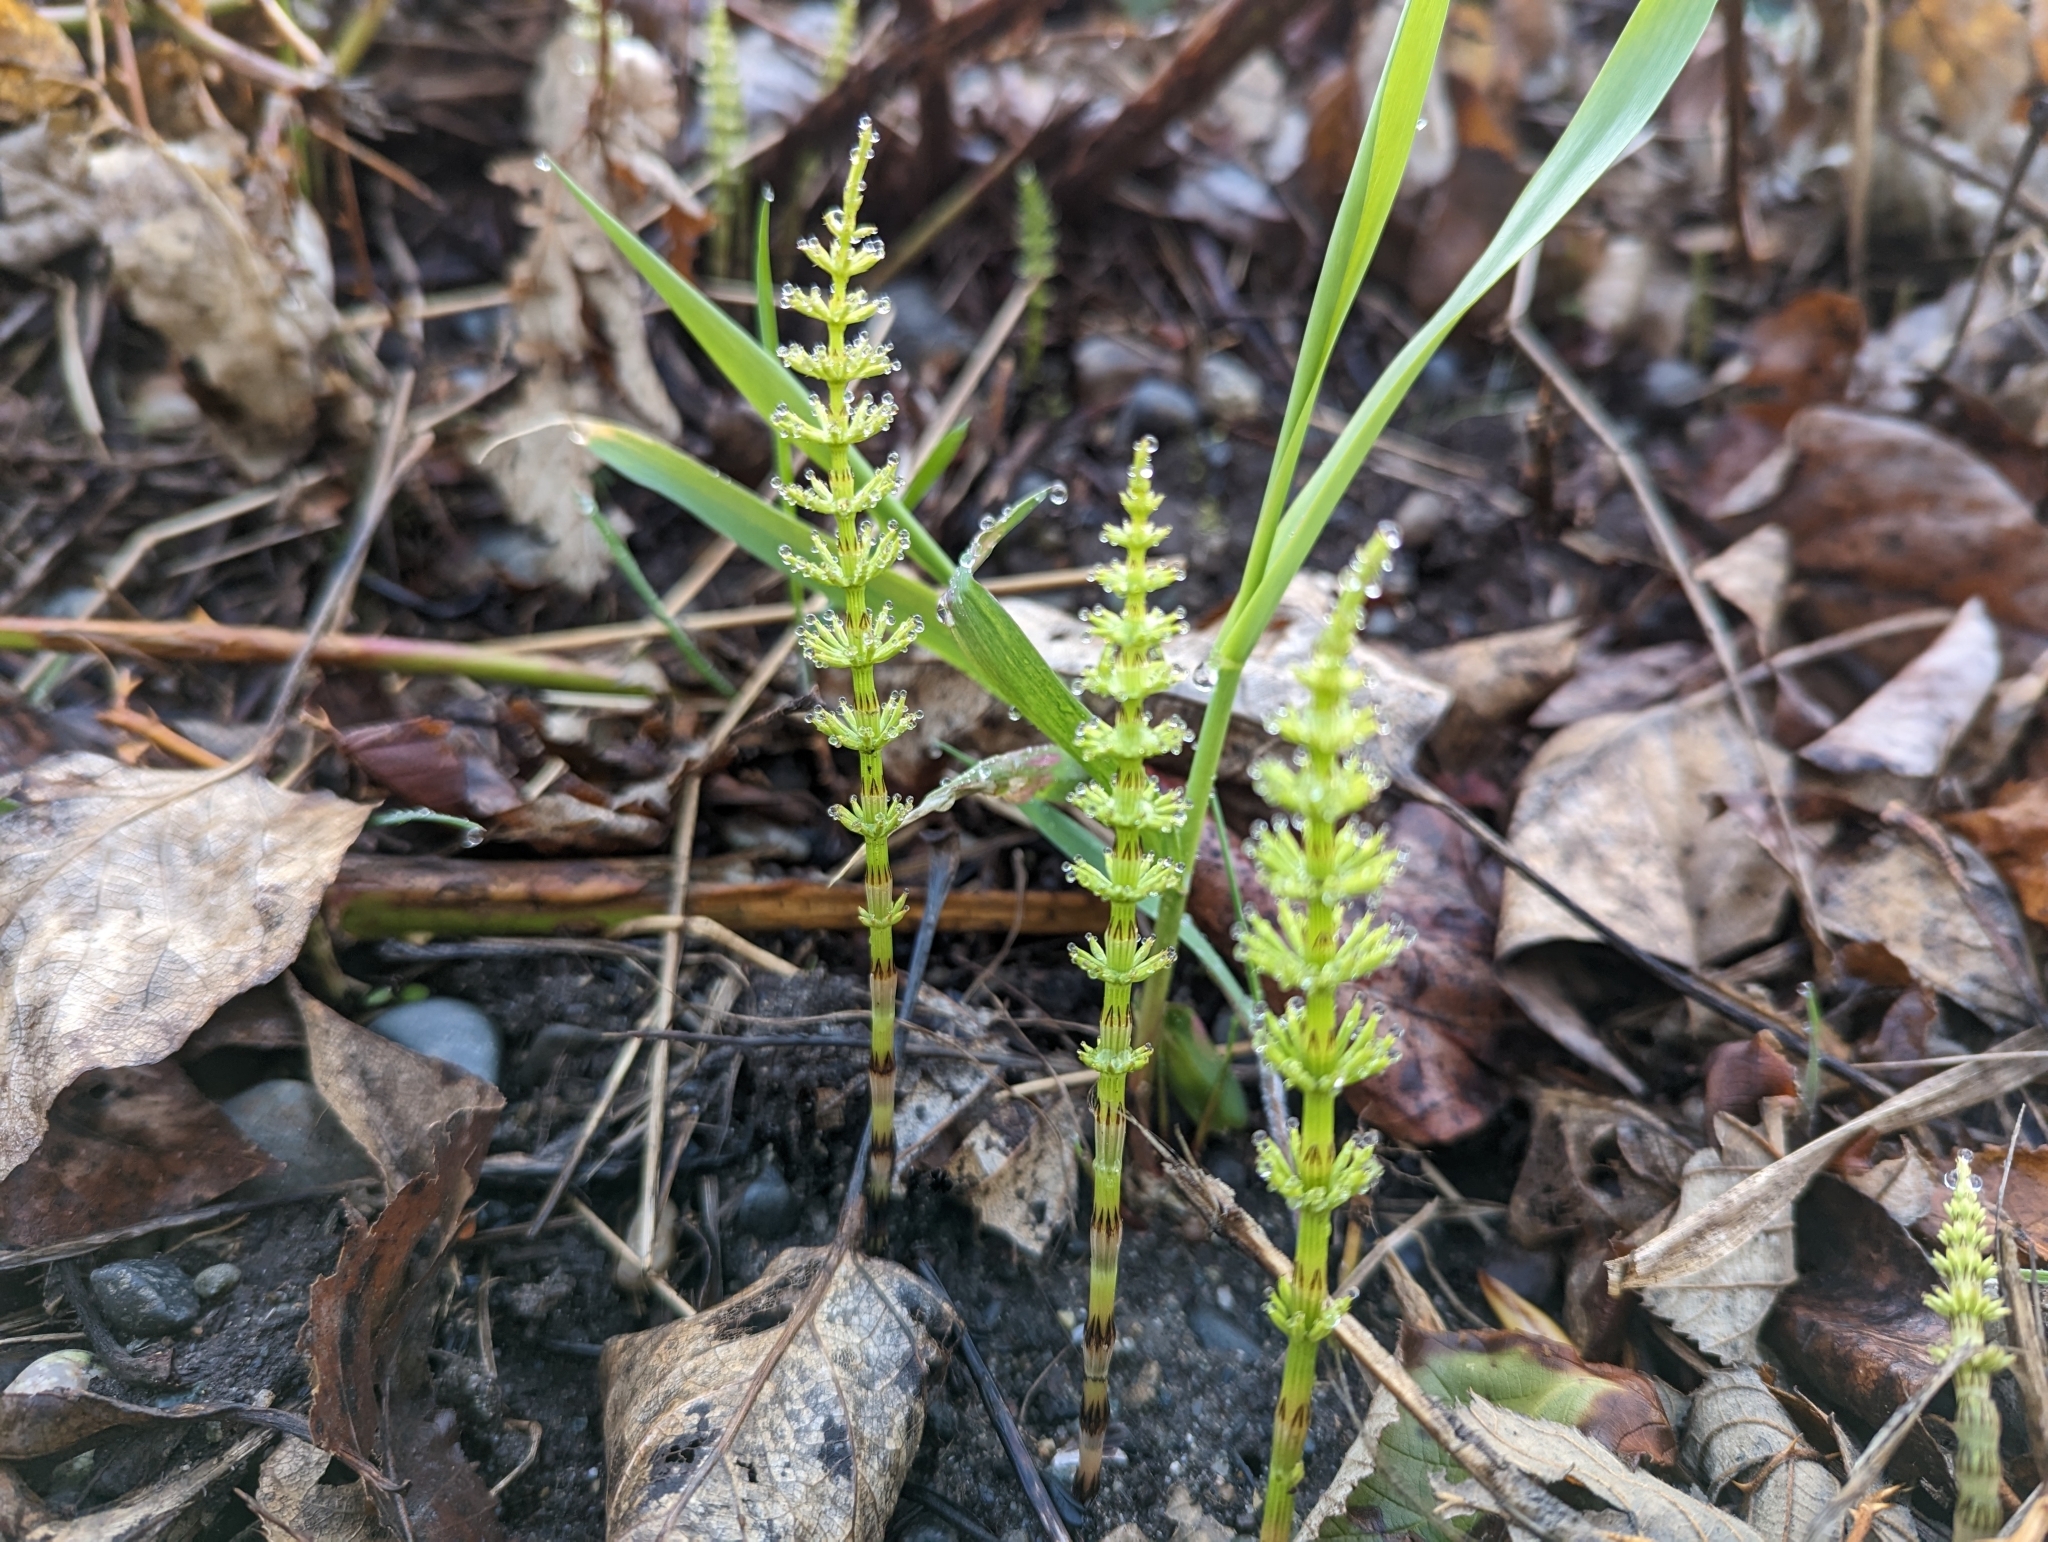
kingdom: Plantae
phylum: Tracheophyta
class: Polypodiopsida
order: Equisetales
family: Equisetaceae
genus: Equisetum
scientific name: Equisetum arvense
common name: Field horsetail
